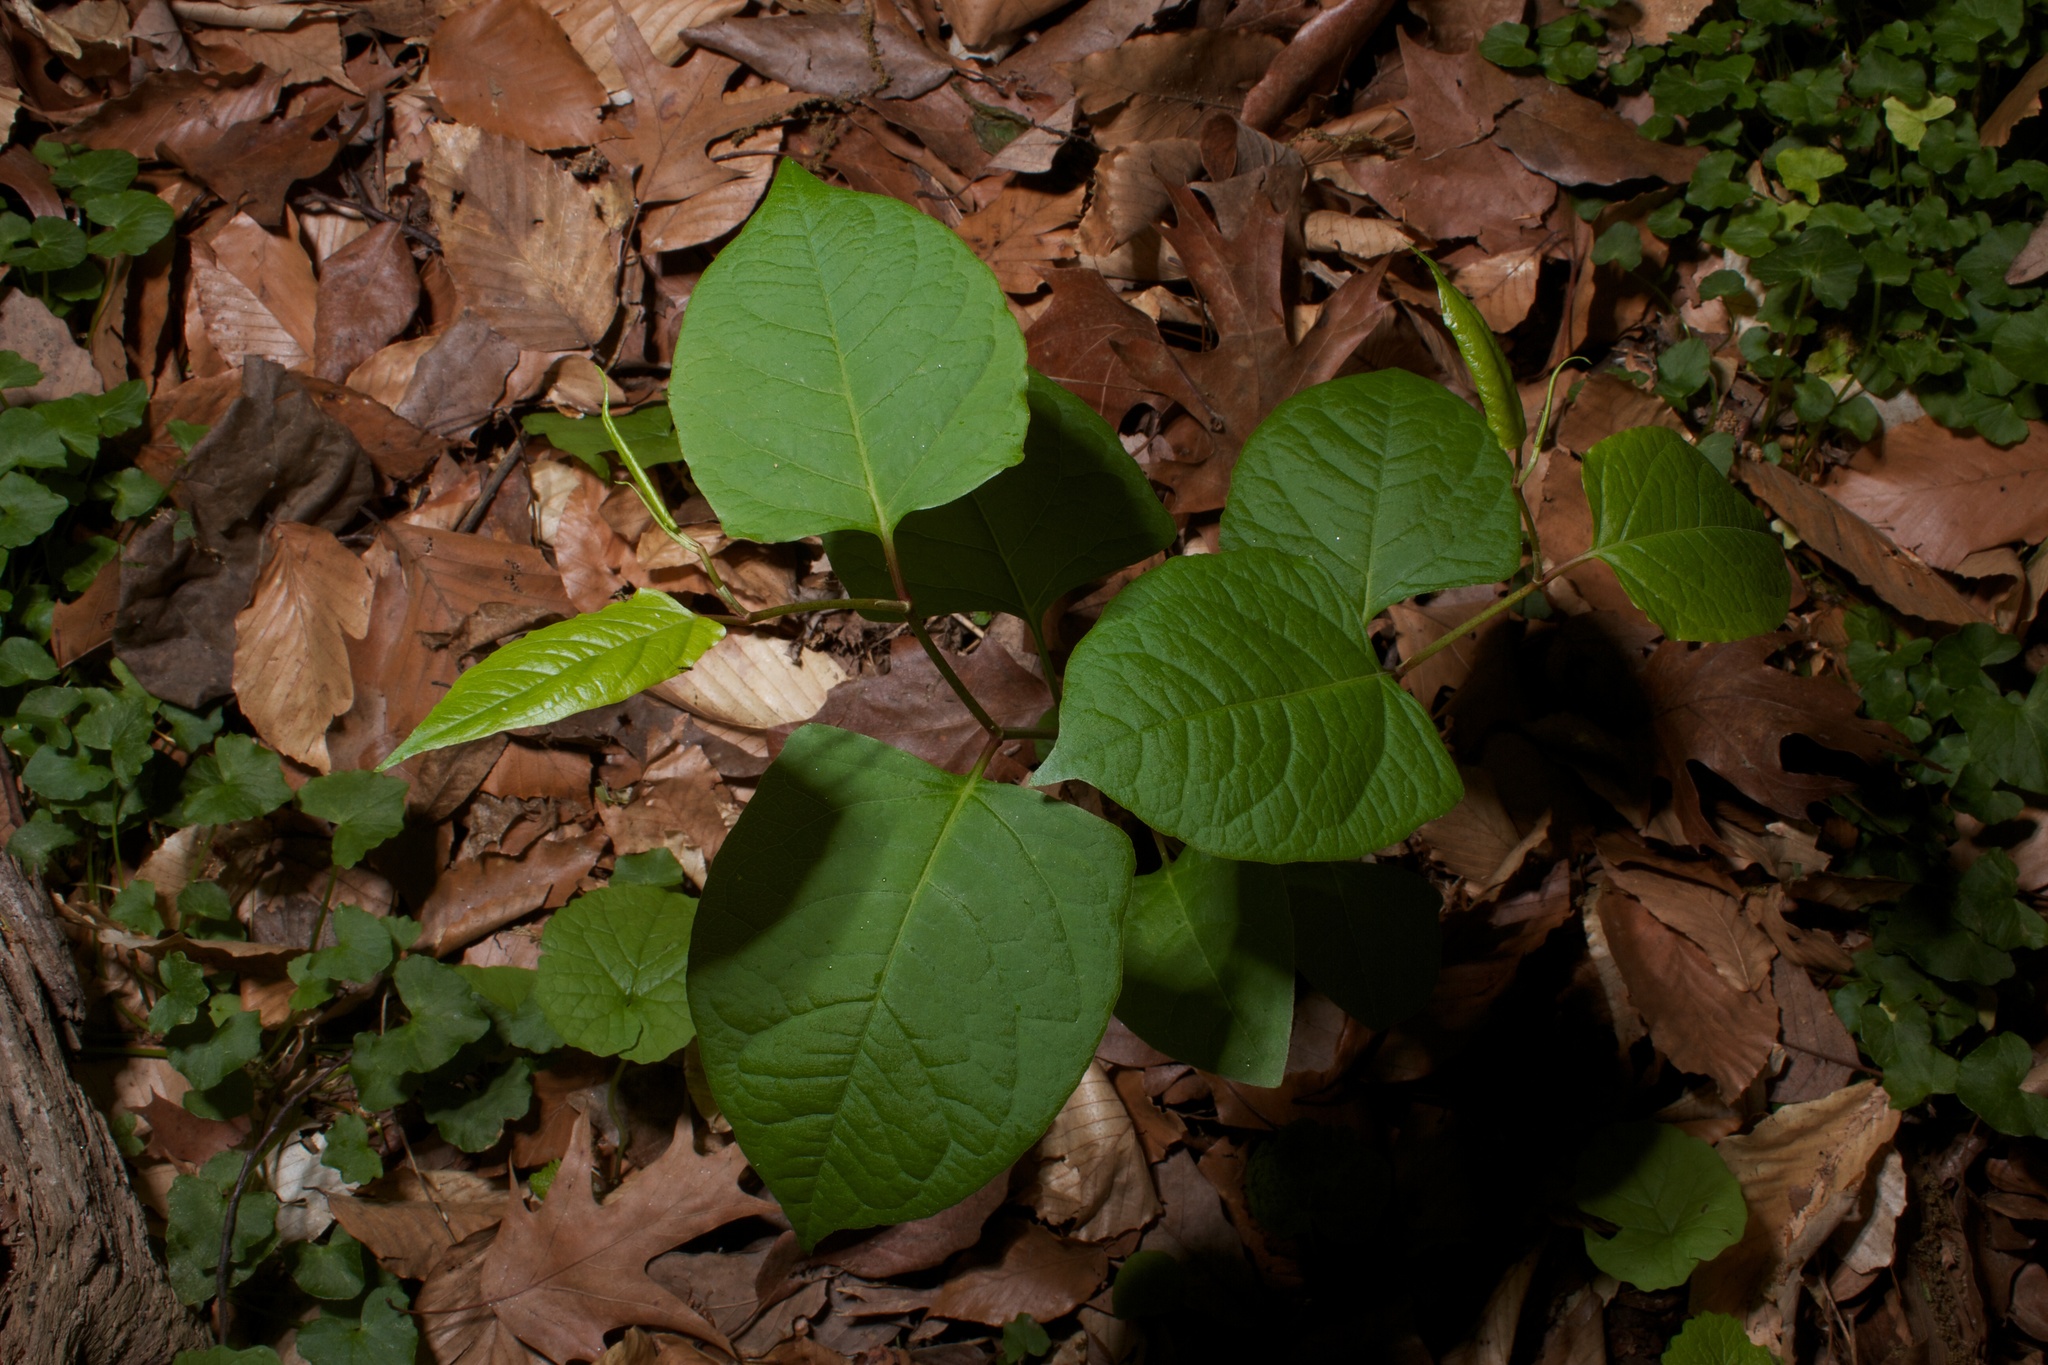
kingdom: Plantae
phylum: Tracheophyta
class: Magnoliopsida
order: Caryophyllales
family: Polygonaceae
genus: Reynoutria
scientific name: Reynoutria japonica
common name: Japanese knotweed
